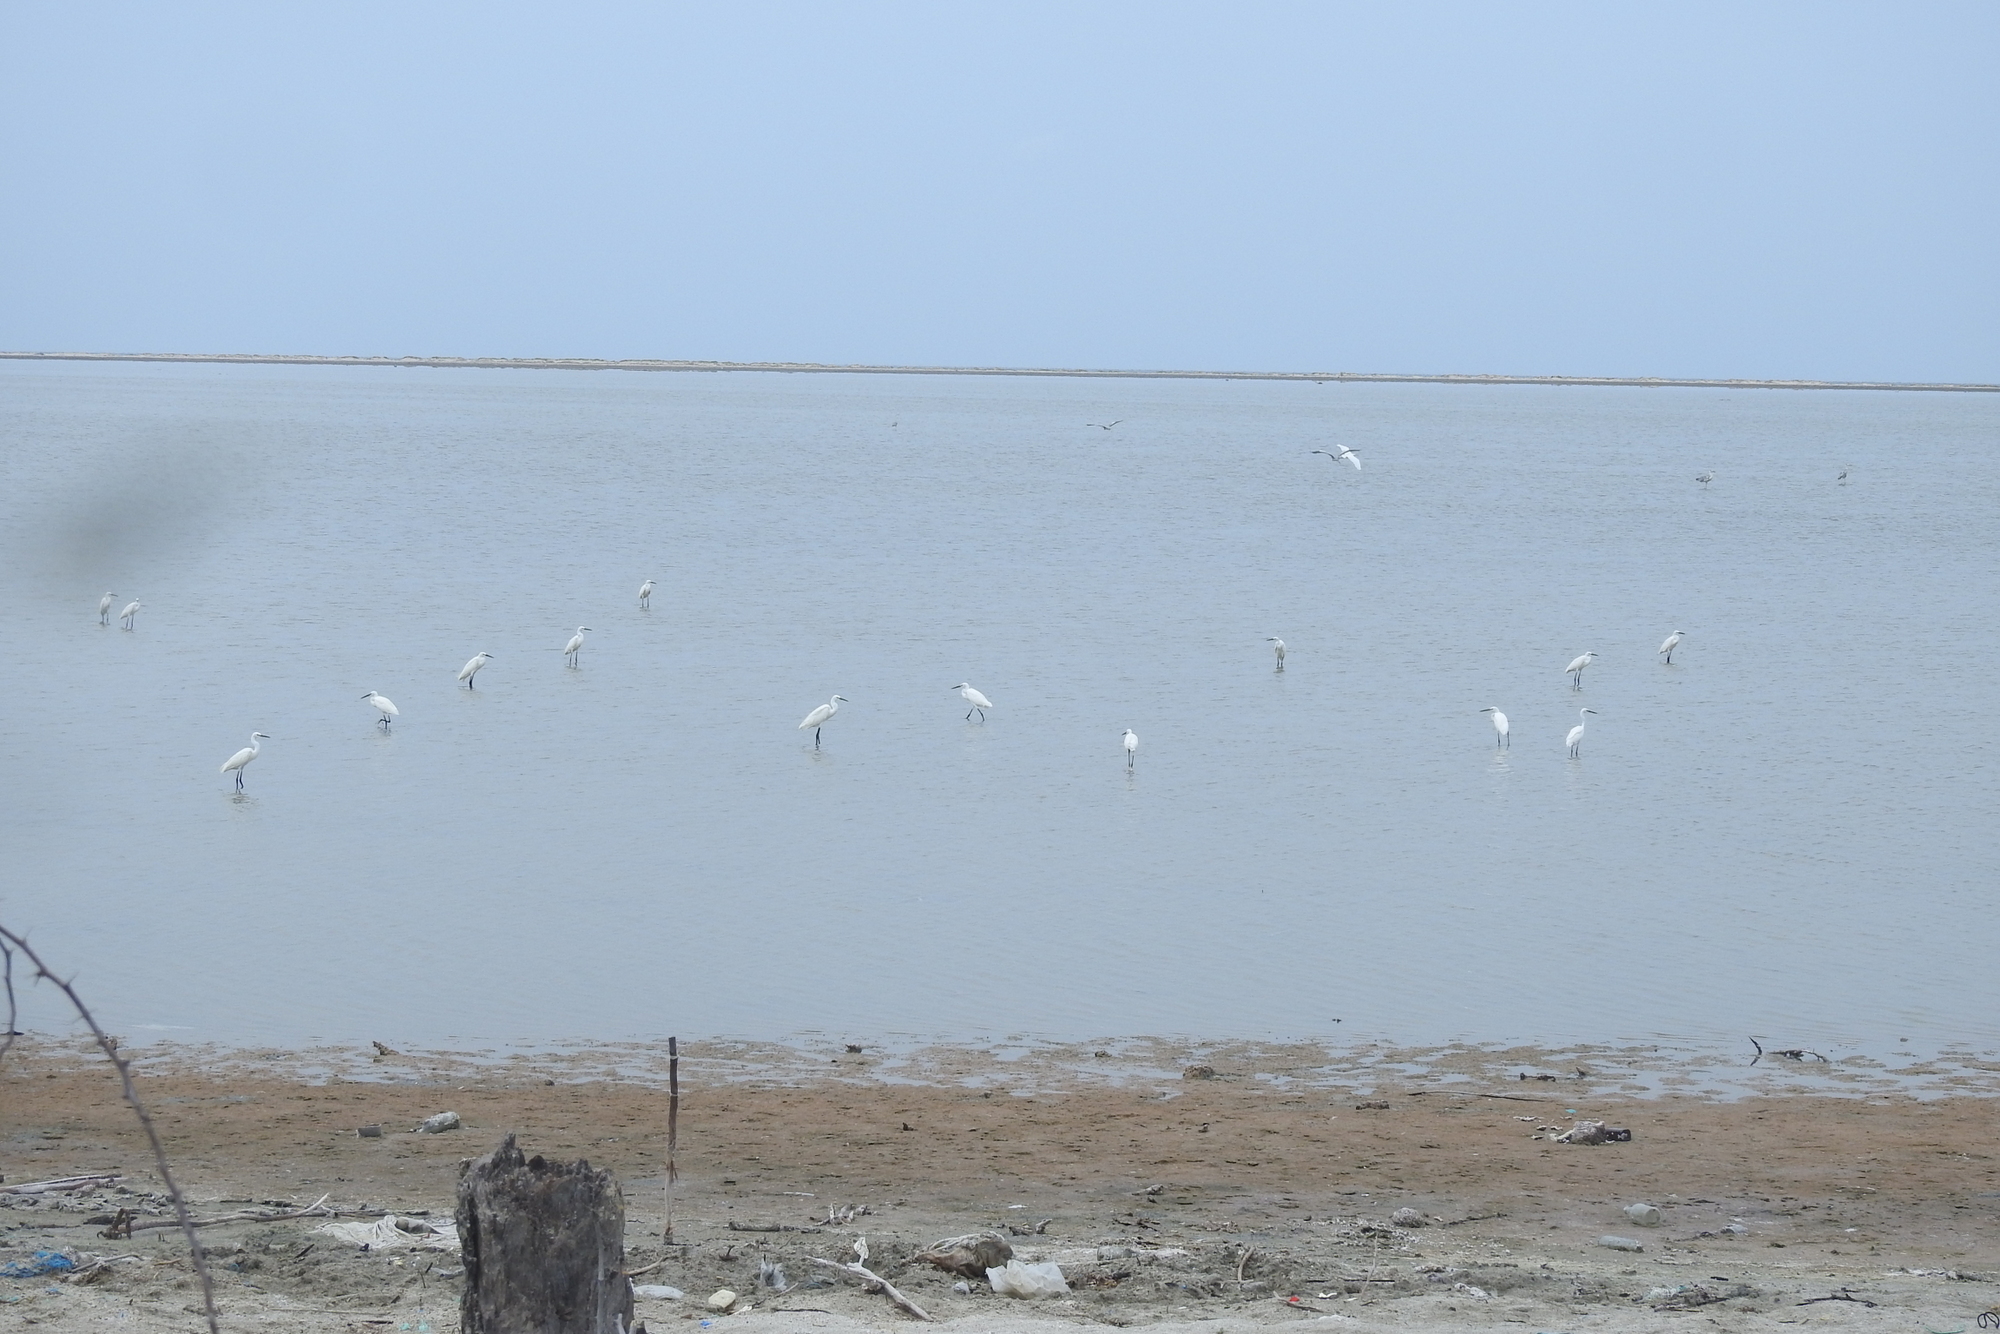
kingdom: Animalia
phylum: Chordata
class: Aves
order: Pelecaniformes
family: Ardeidae
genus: Egretta
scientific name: Egretta garzetta
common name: Little egret
